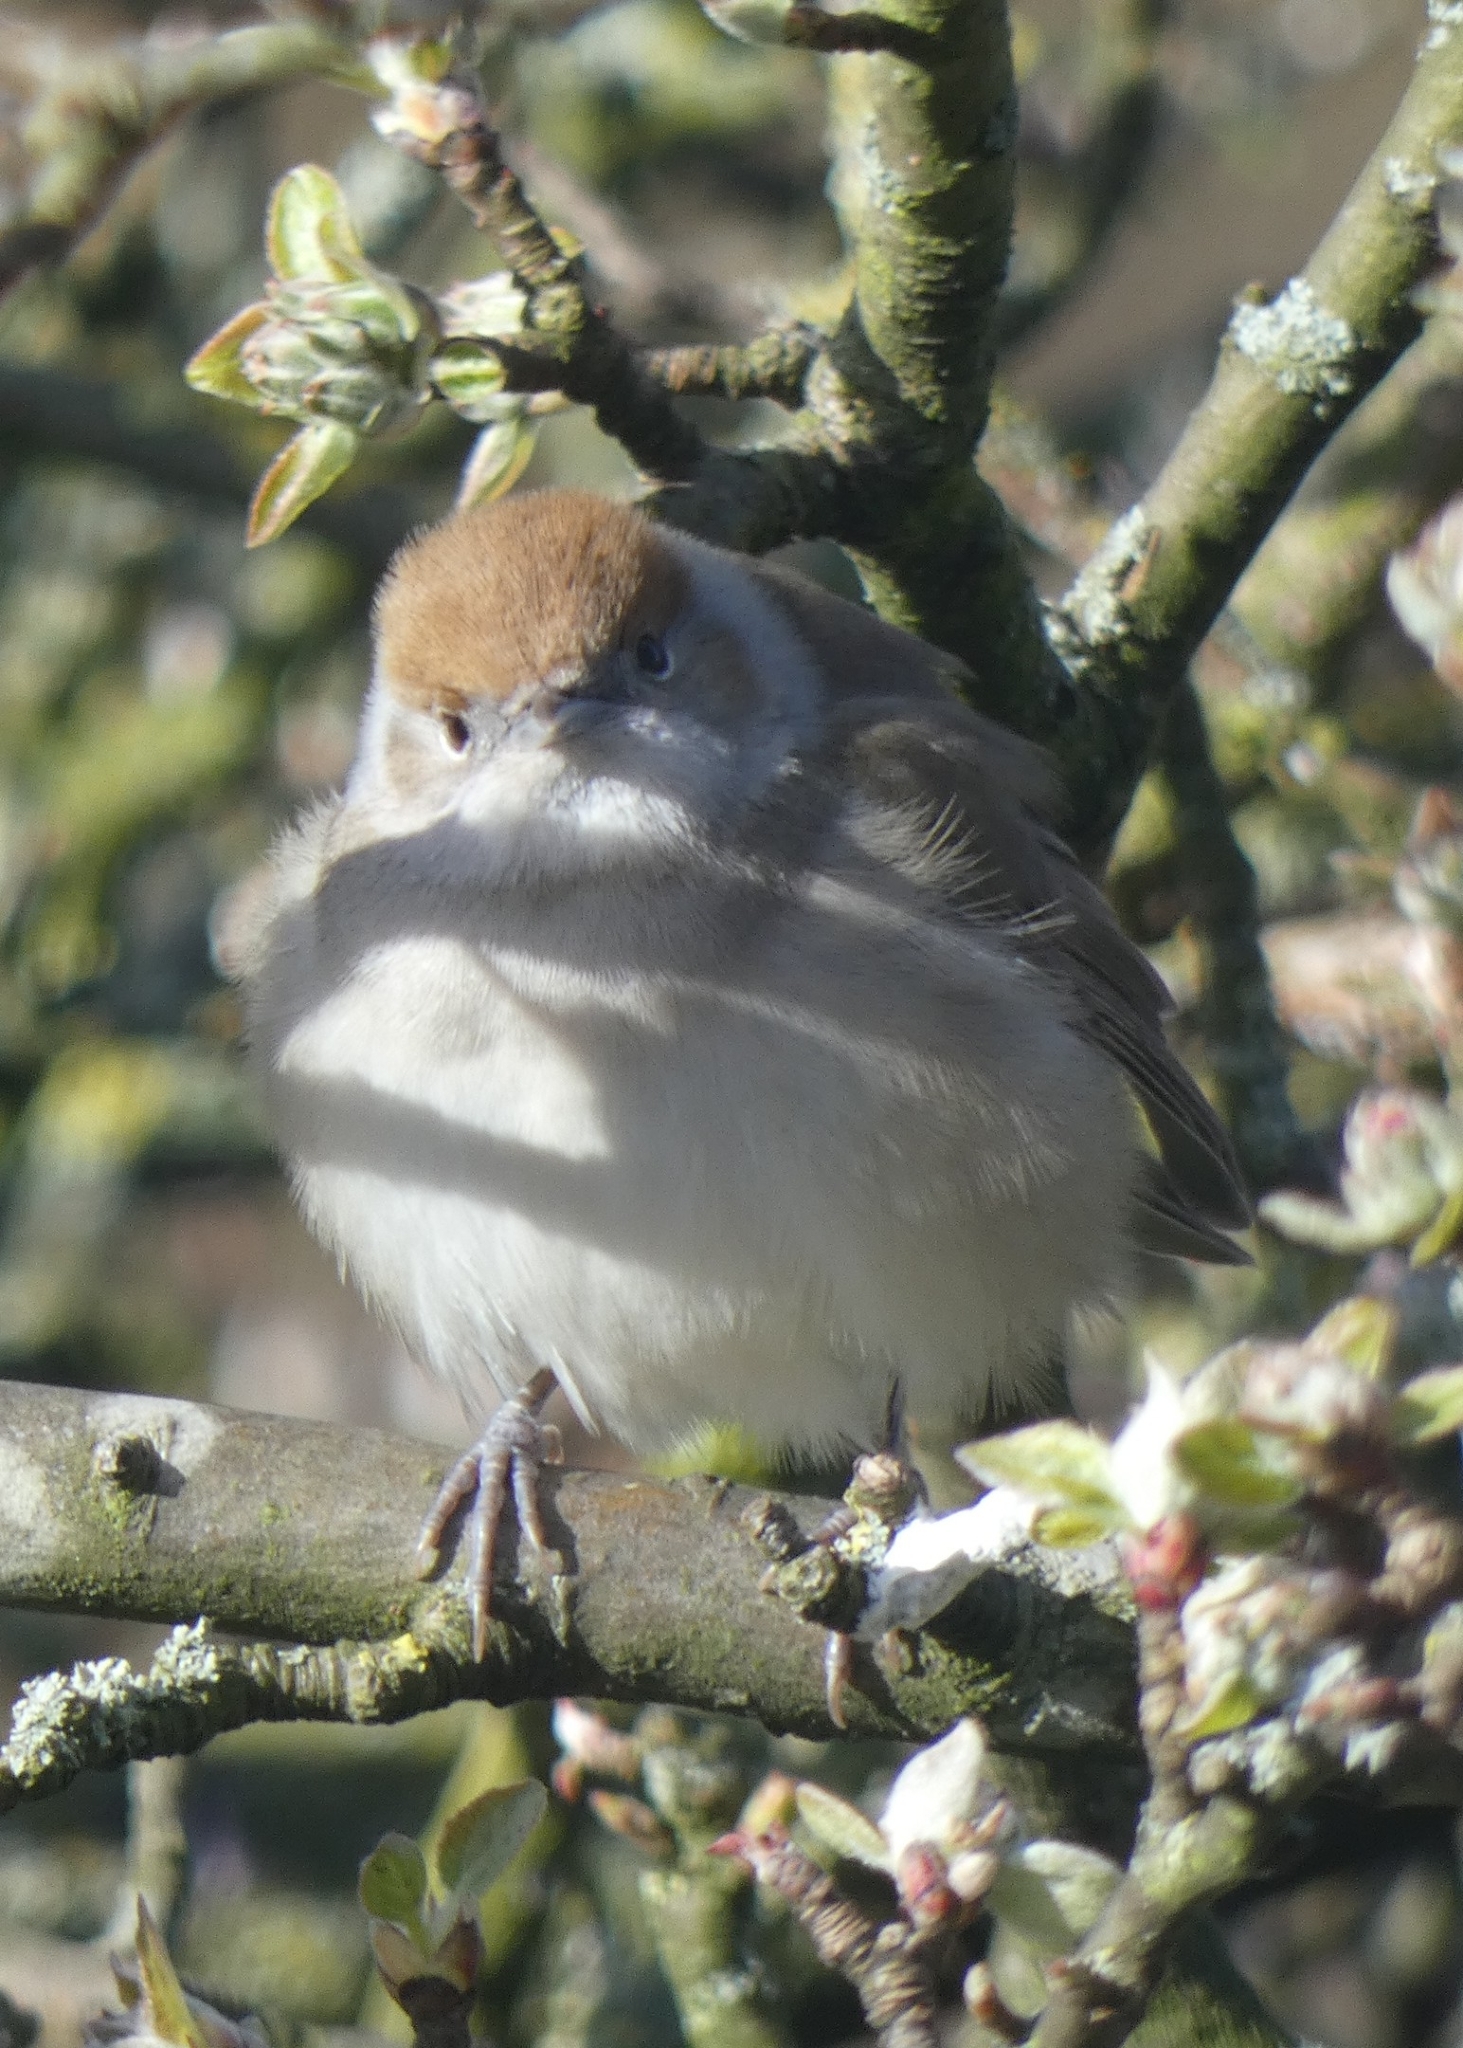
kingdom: Animalia
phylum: Chordata
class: Aves
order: Passeriformes
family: Sylviidae
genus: Sylvia
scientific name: Sylvia atricapilla
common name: Eurasian blackcap
